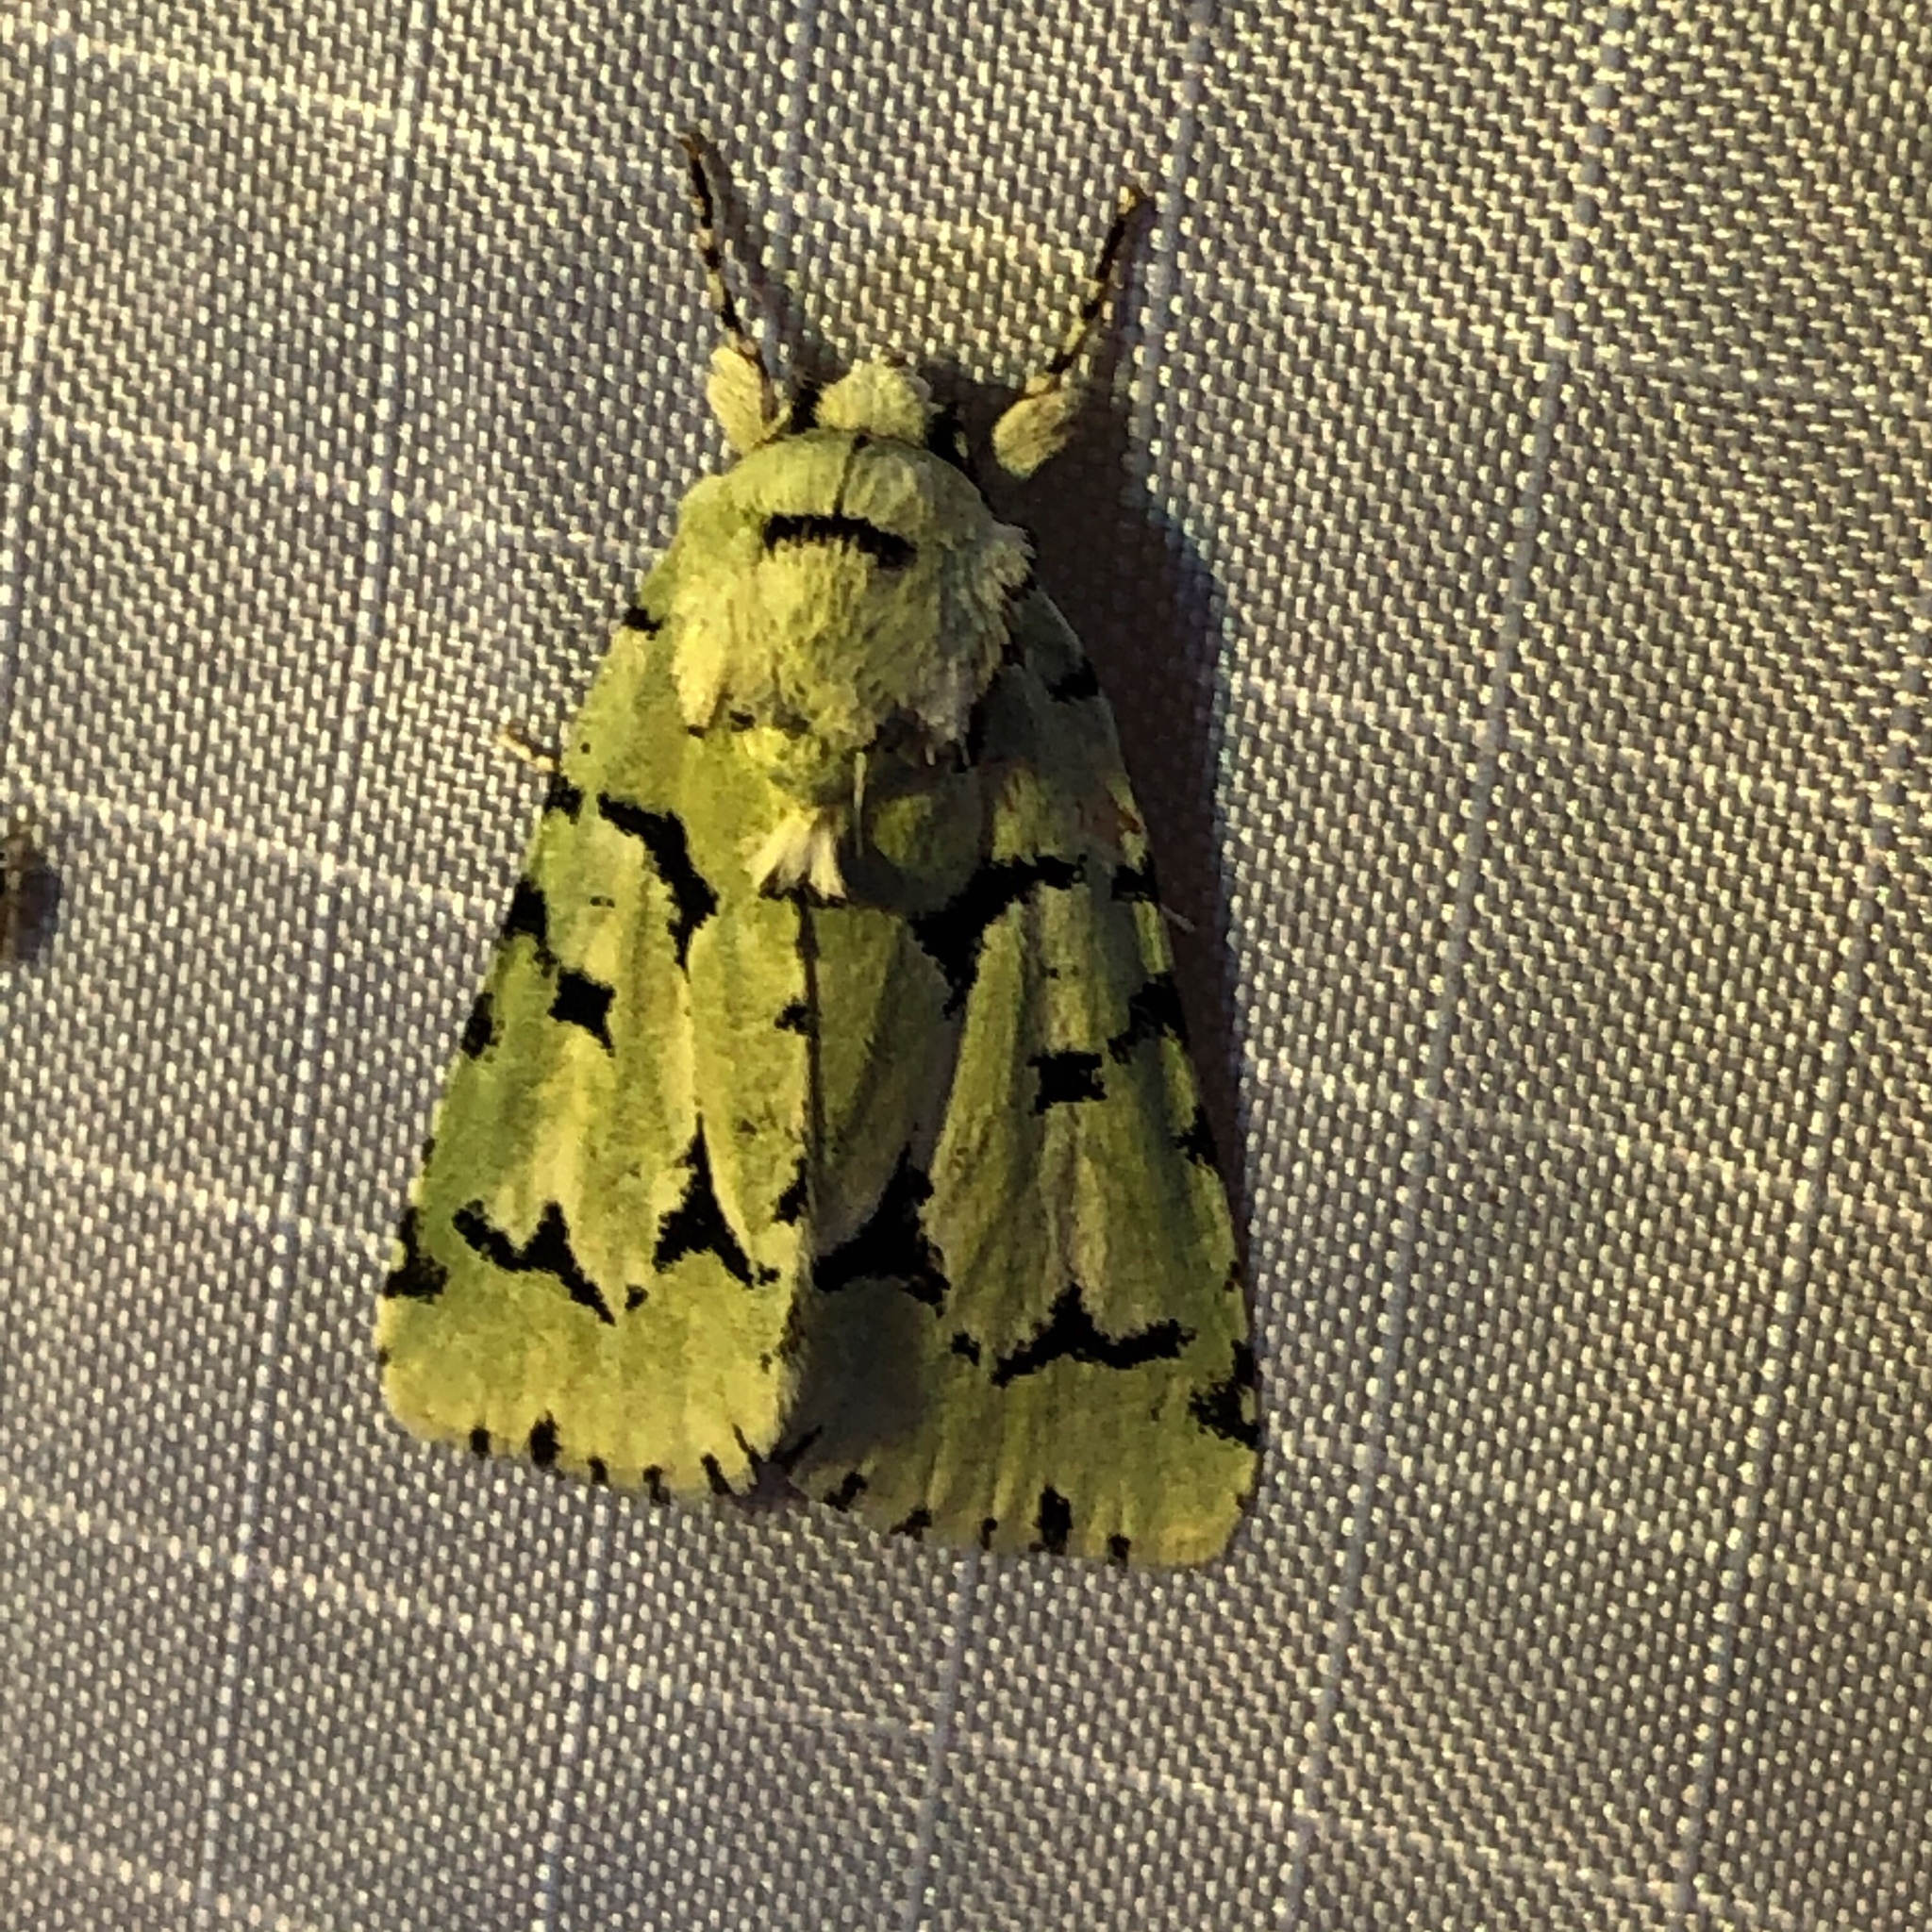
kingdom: Animalia
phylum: Arthropoda
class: Insecta
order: Lepidoptera
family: Noctuidae
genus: Acronicta
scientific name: Acronicta fallax
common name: Green marvel
